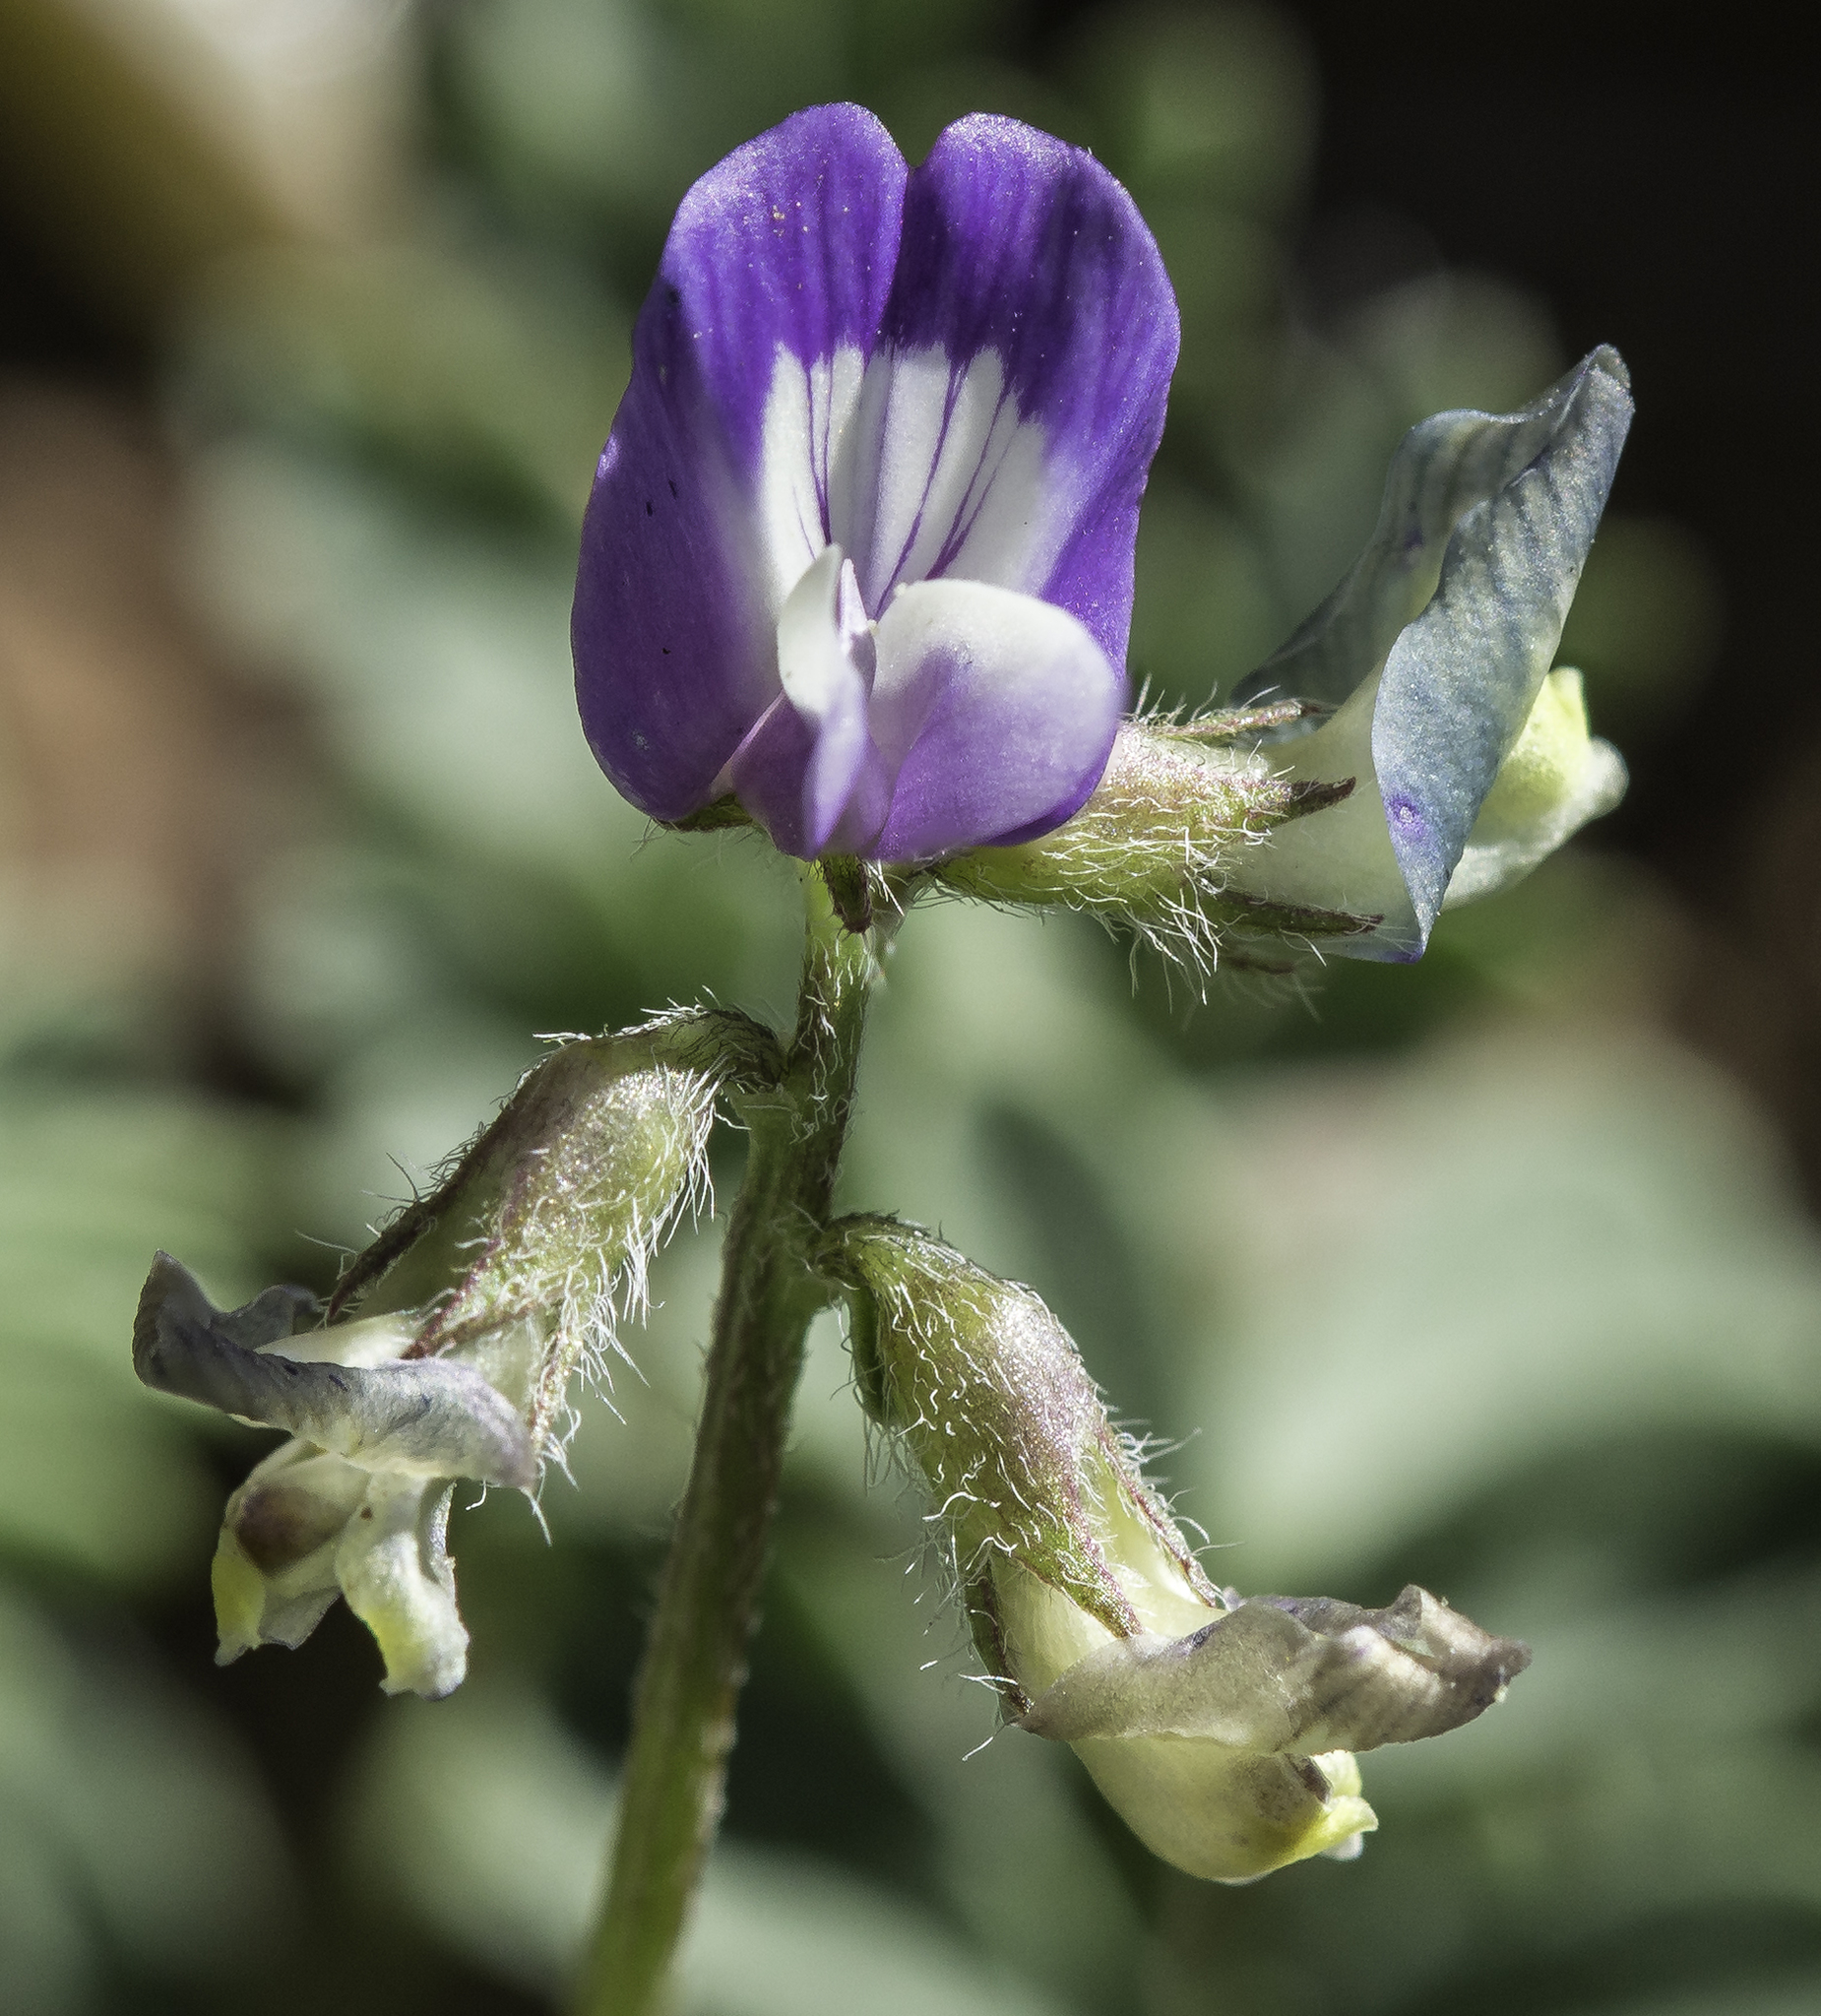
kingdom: Plantae
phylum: Tracheophyta
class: Magnoliopsida
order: Fabales
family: Fabaceae
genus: Astragalus
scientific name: Astragalus nuttallianus
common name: Smallflowered milkvetch
